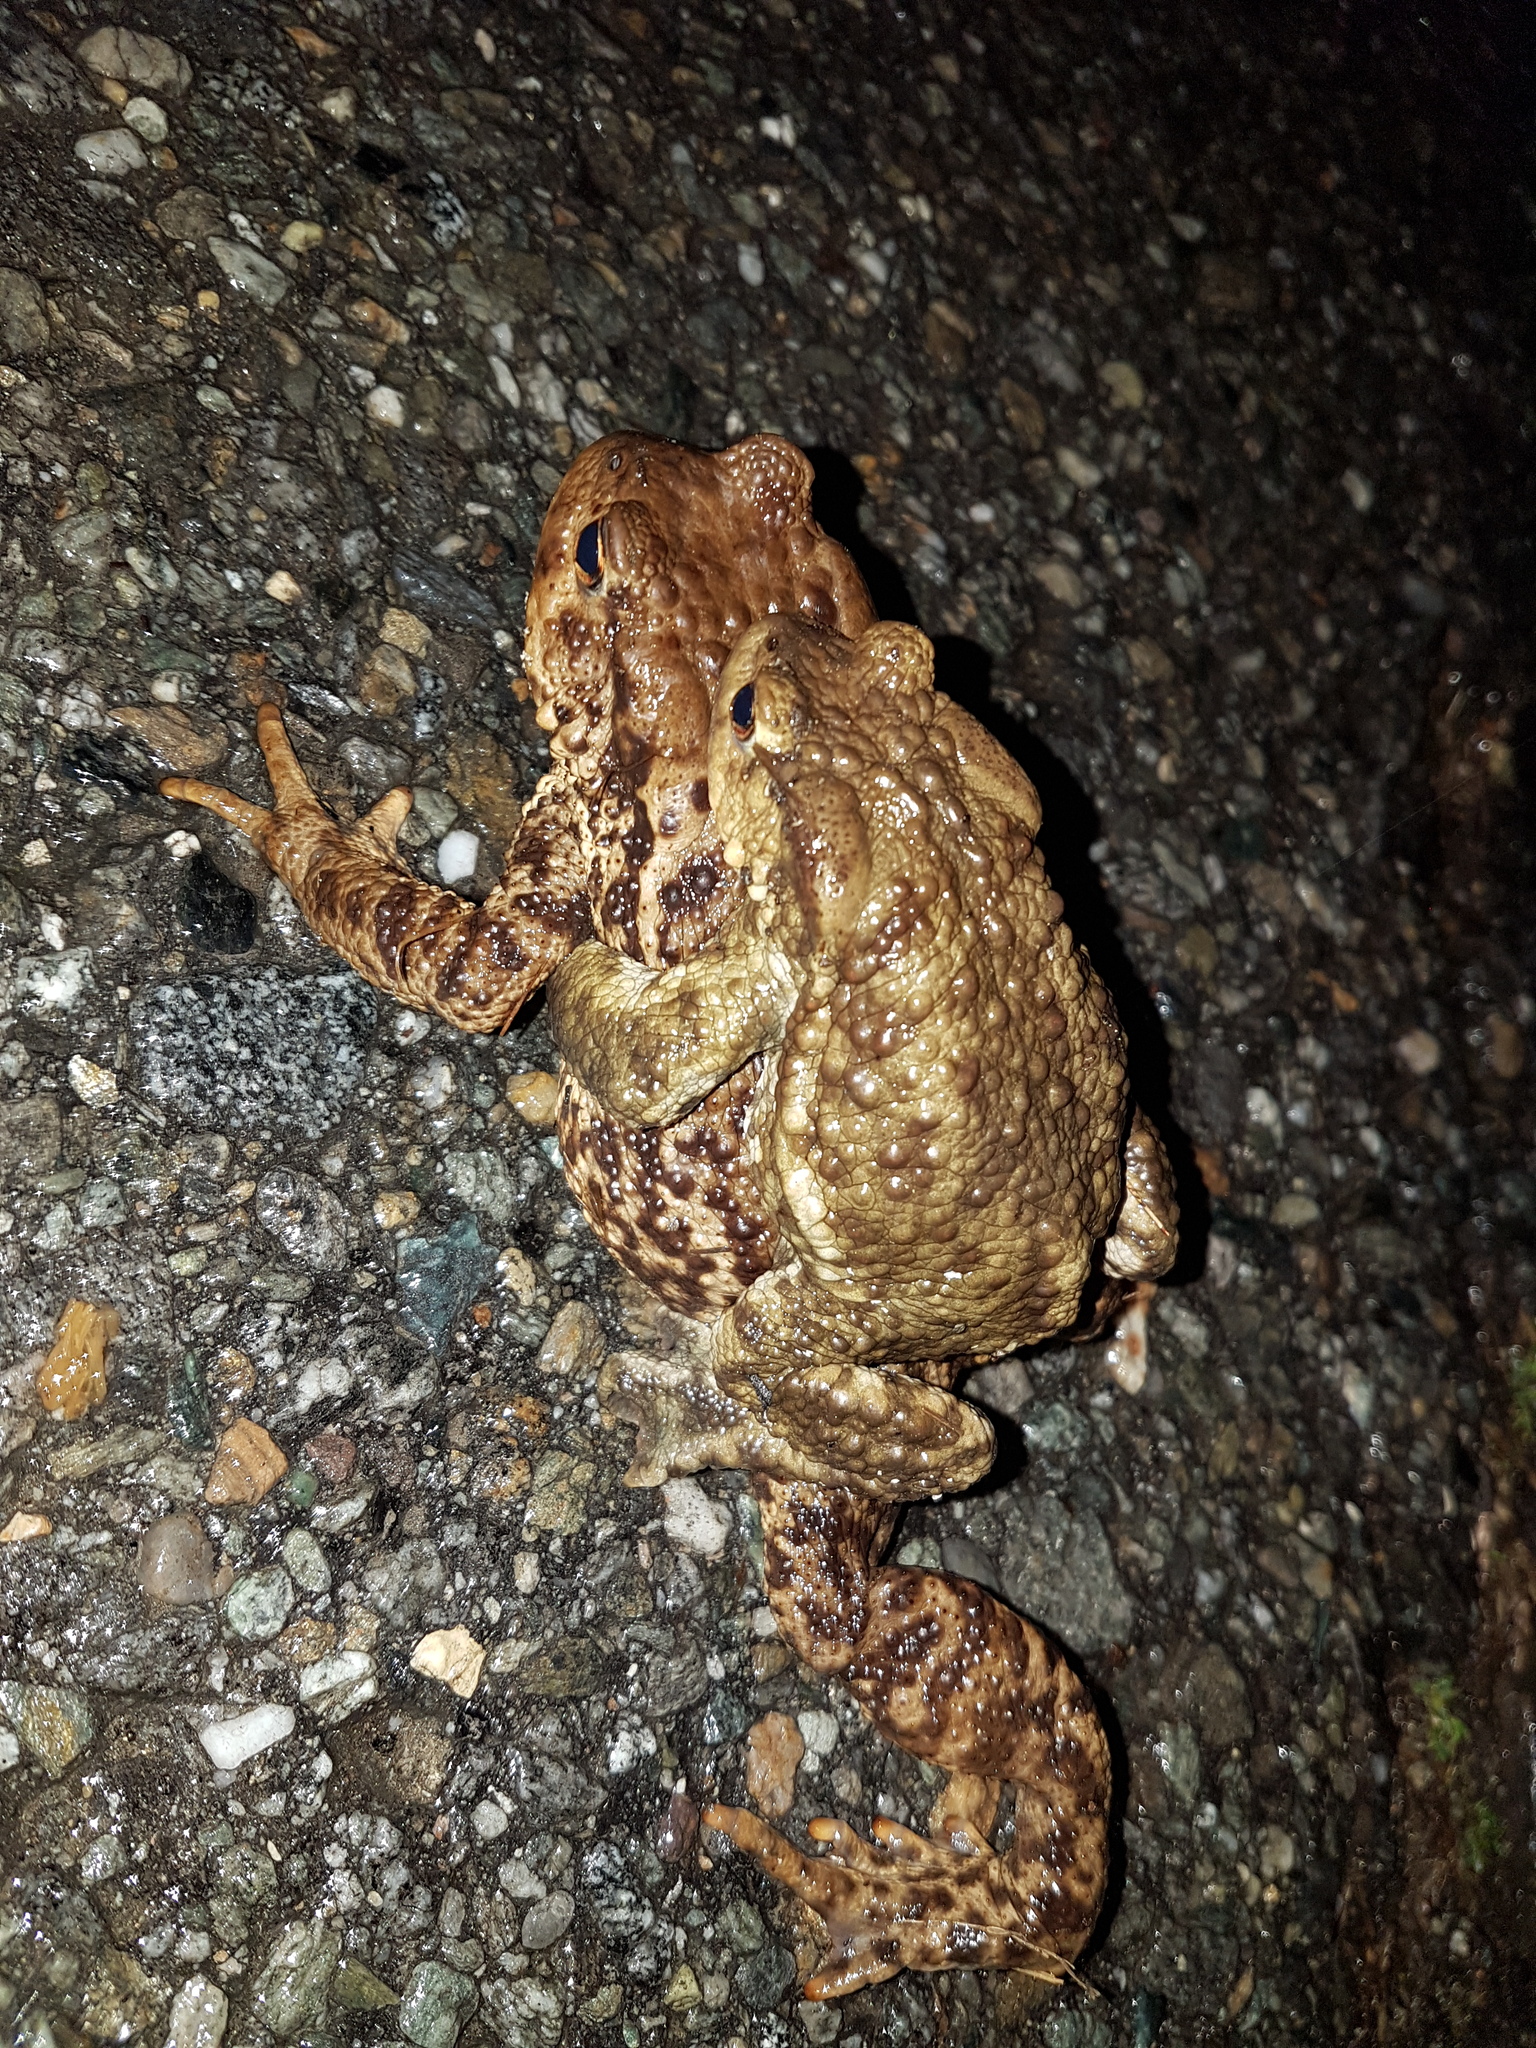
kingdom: Animalia
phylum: Chordata
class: Amphibia
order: Anura
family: Bufonidae
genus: Bufo
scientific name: Bufo bufo
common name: Common toad
